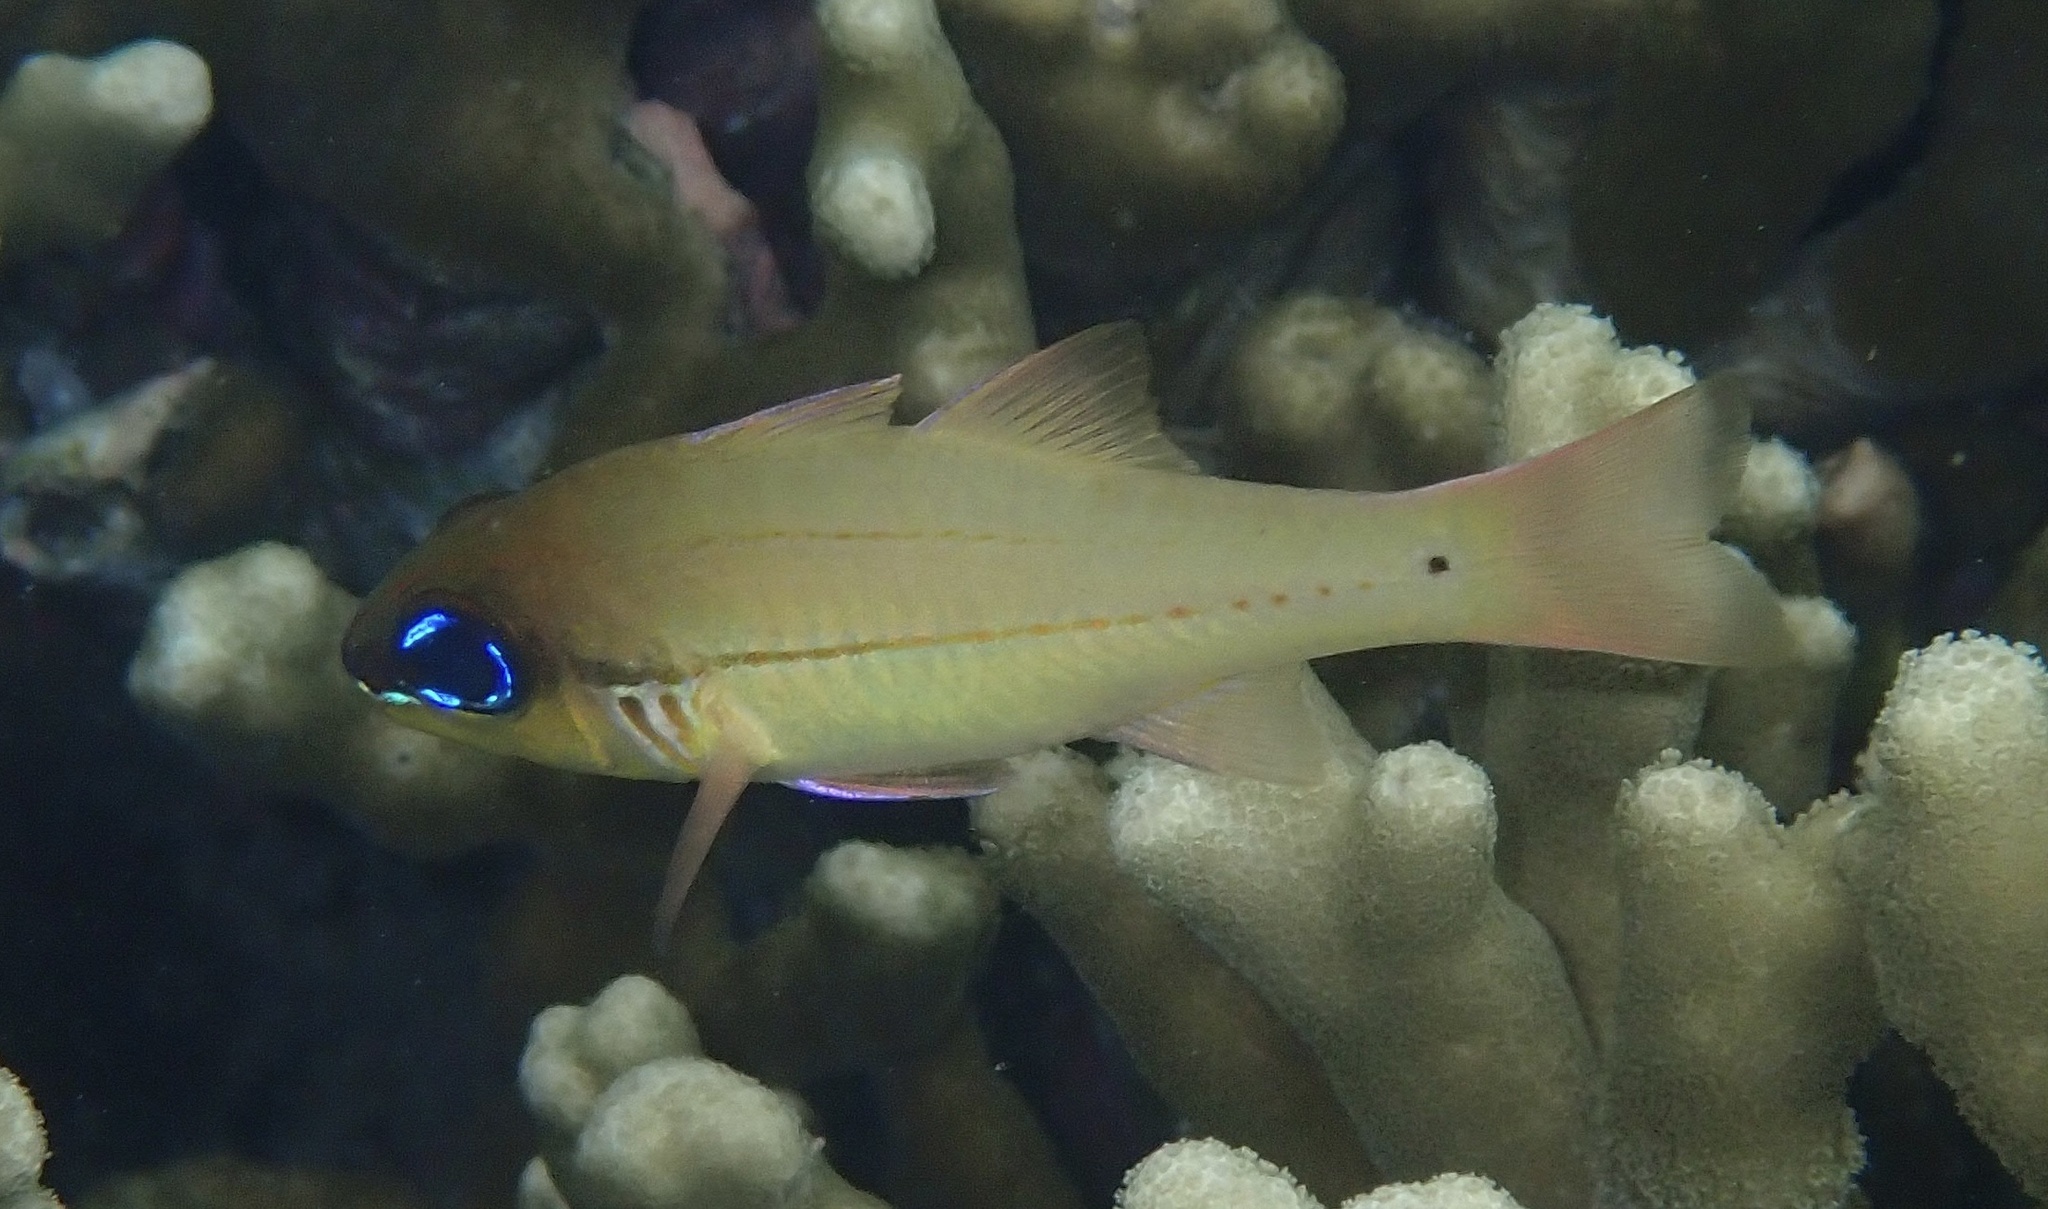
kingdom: Animalia
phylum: Chordata
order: Perciformes
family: Apogonidae
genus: Ostorhinchus
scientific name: Ostorhinchus sealei
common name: Seale's cardinalfish
